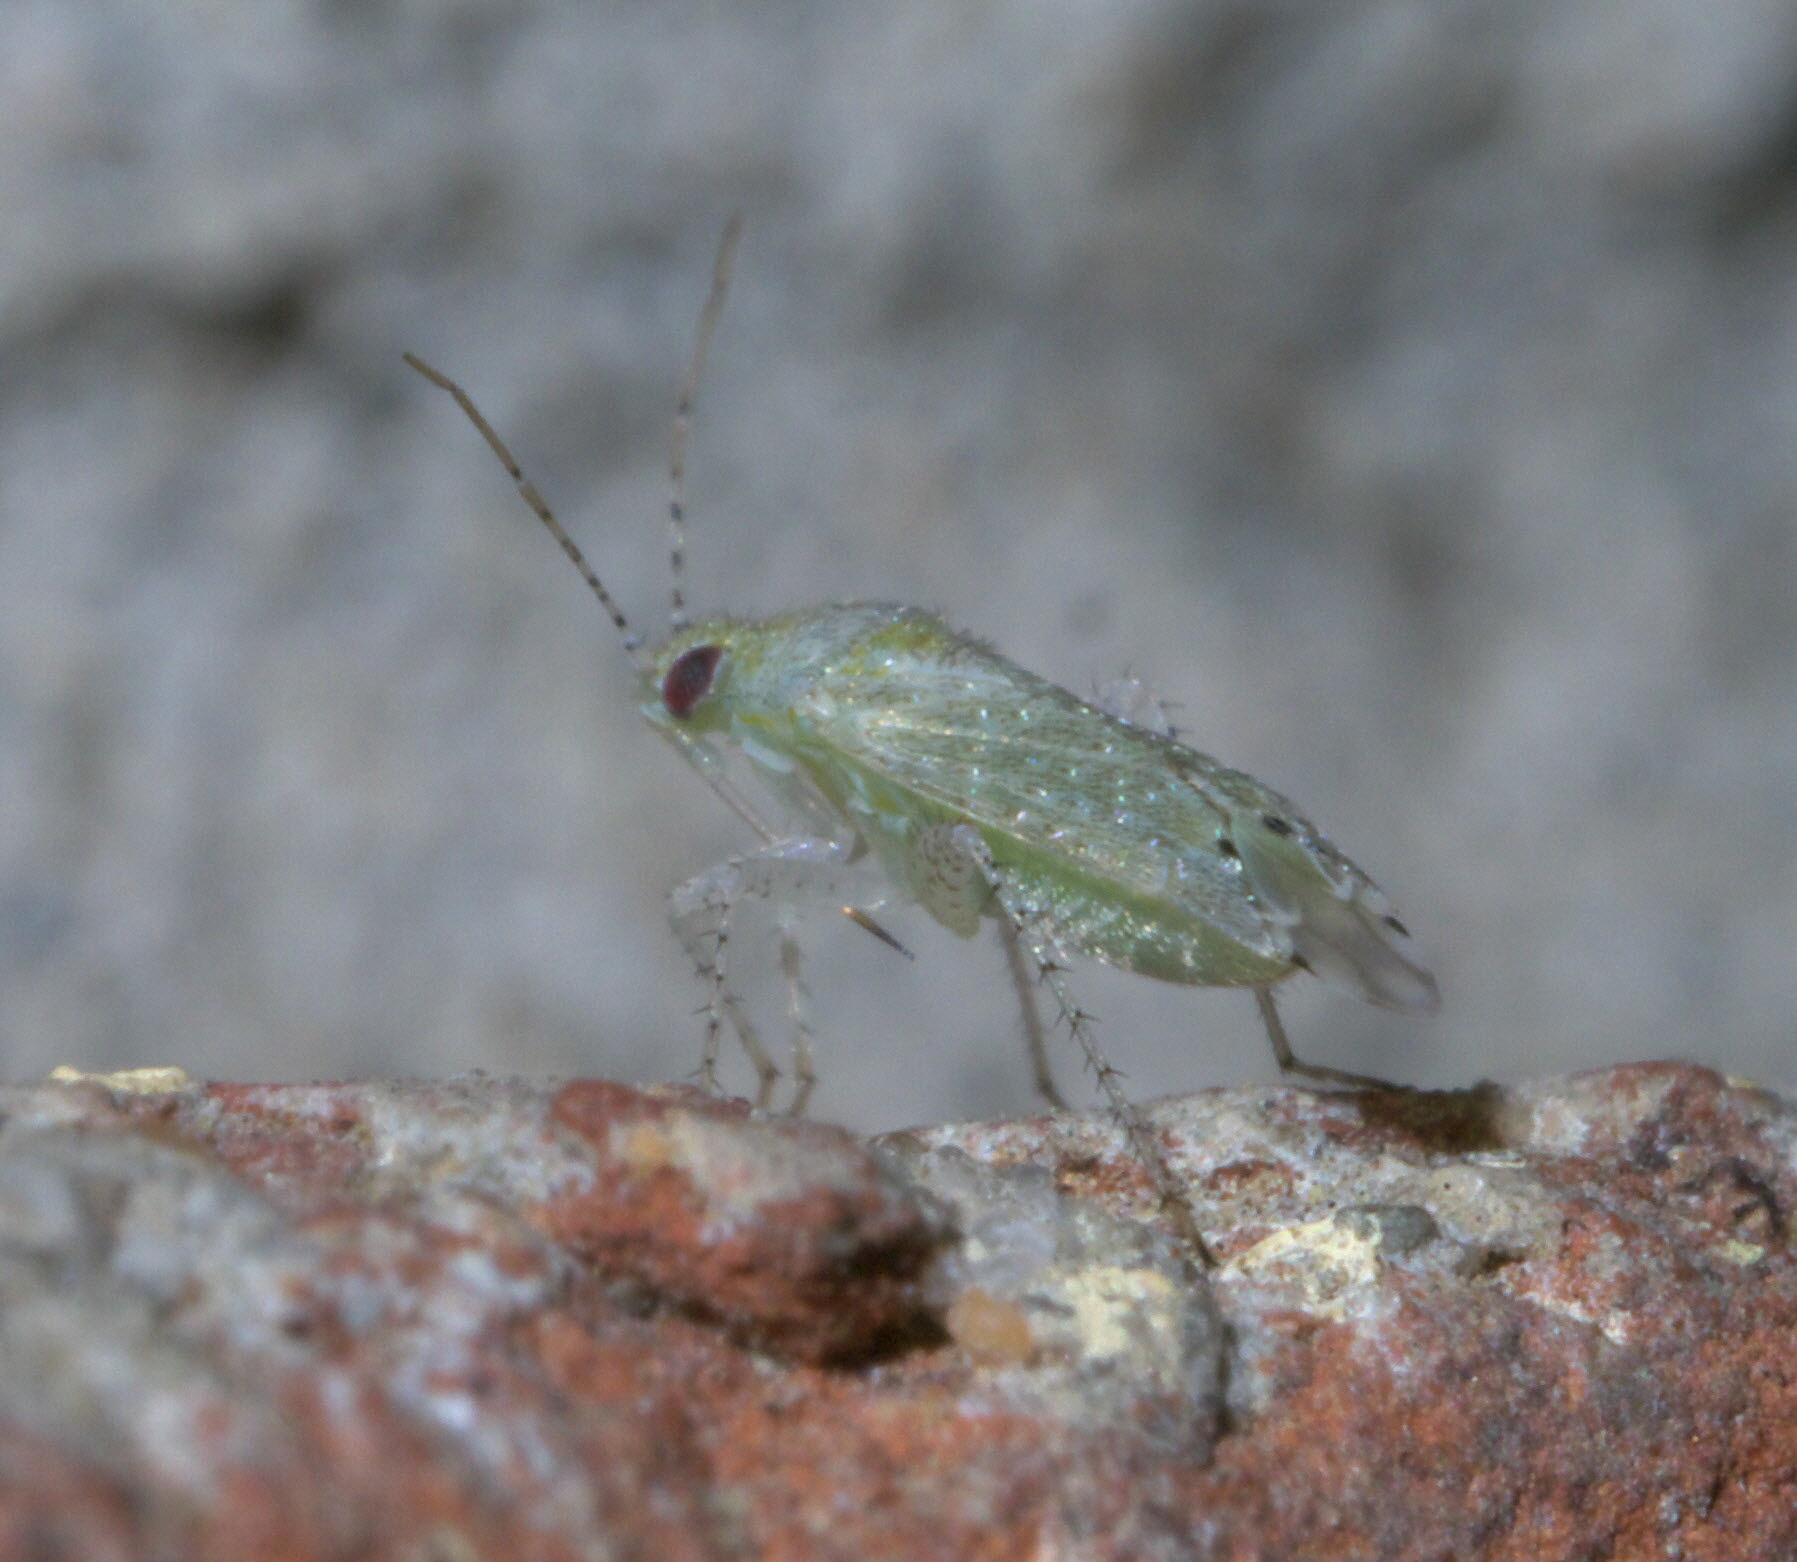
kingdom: Animalia
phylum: Arthropoda
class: Insecta
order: Hemiptera
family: Miridae
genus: Pseudatomoscelis
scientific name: Pseudatomoscelis seriatus
